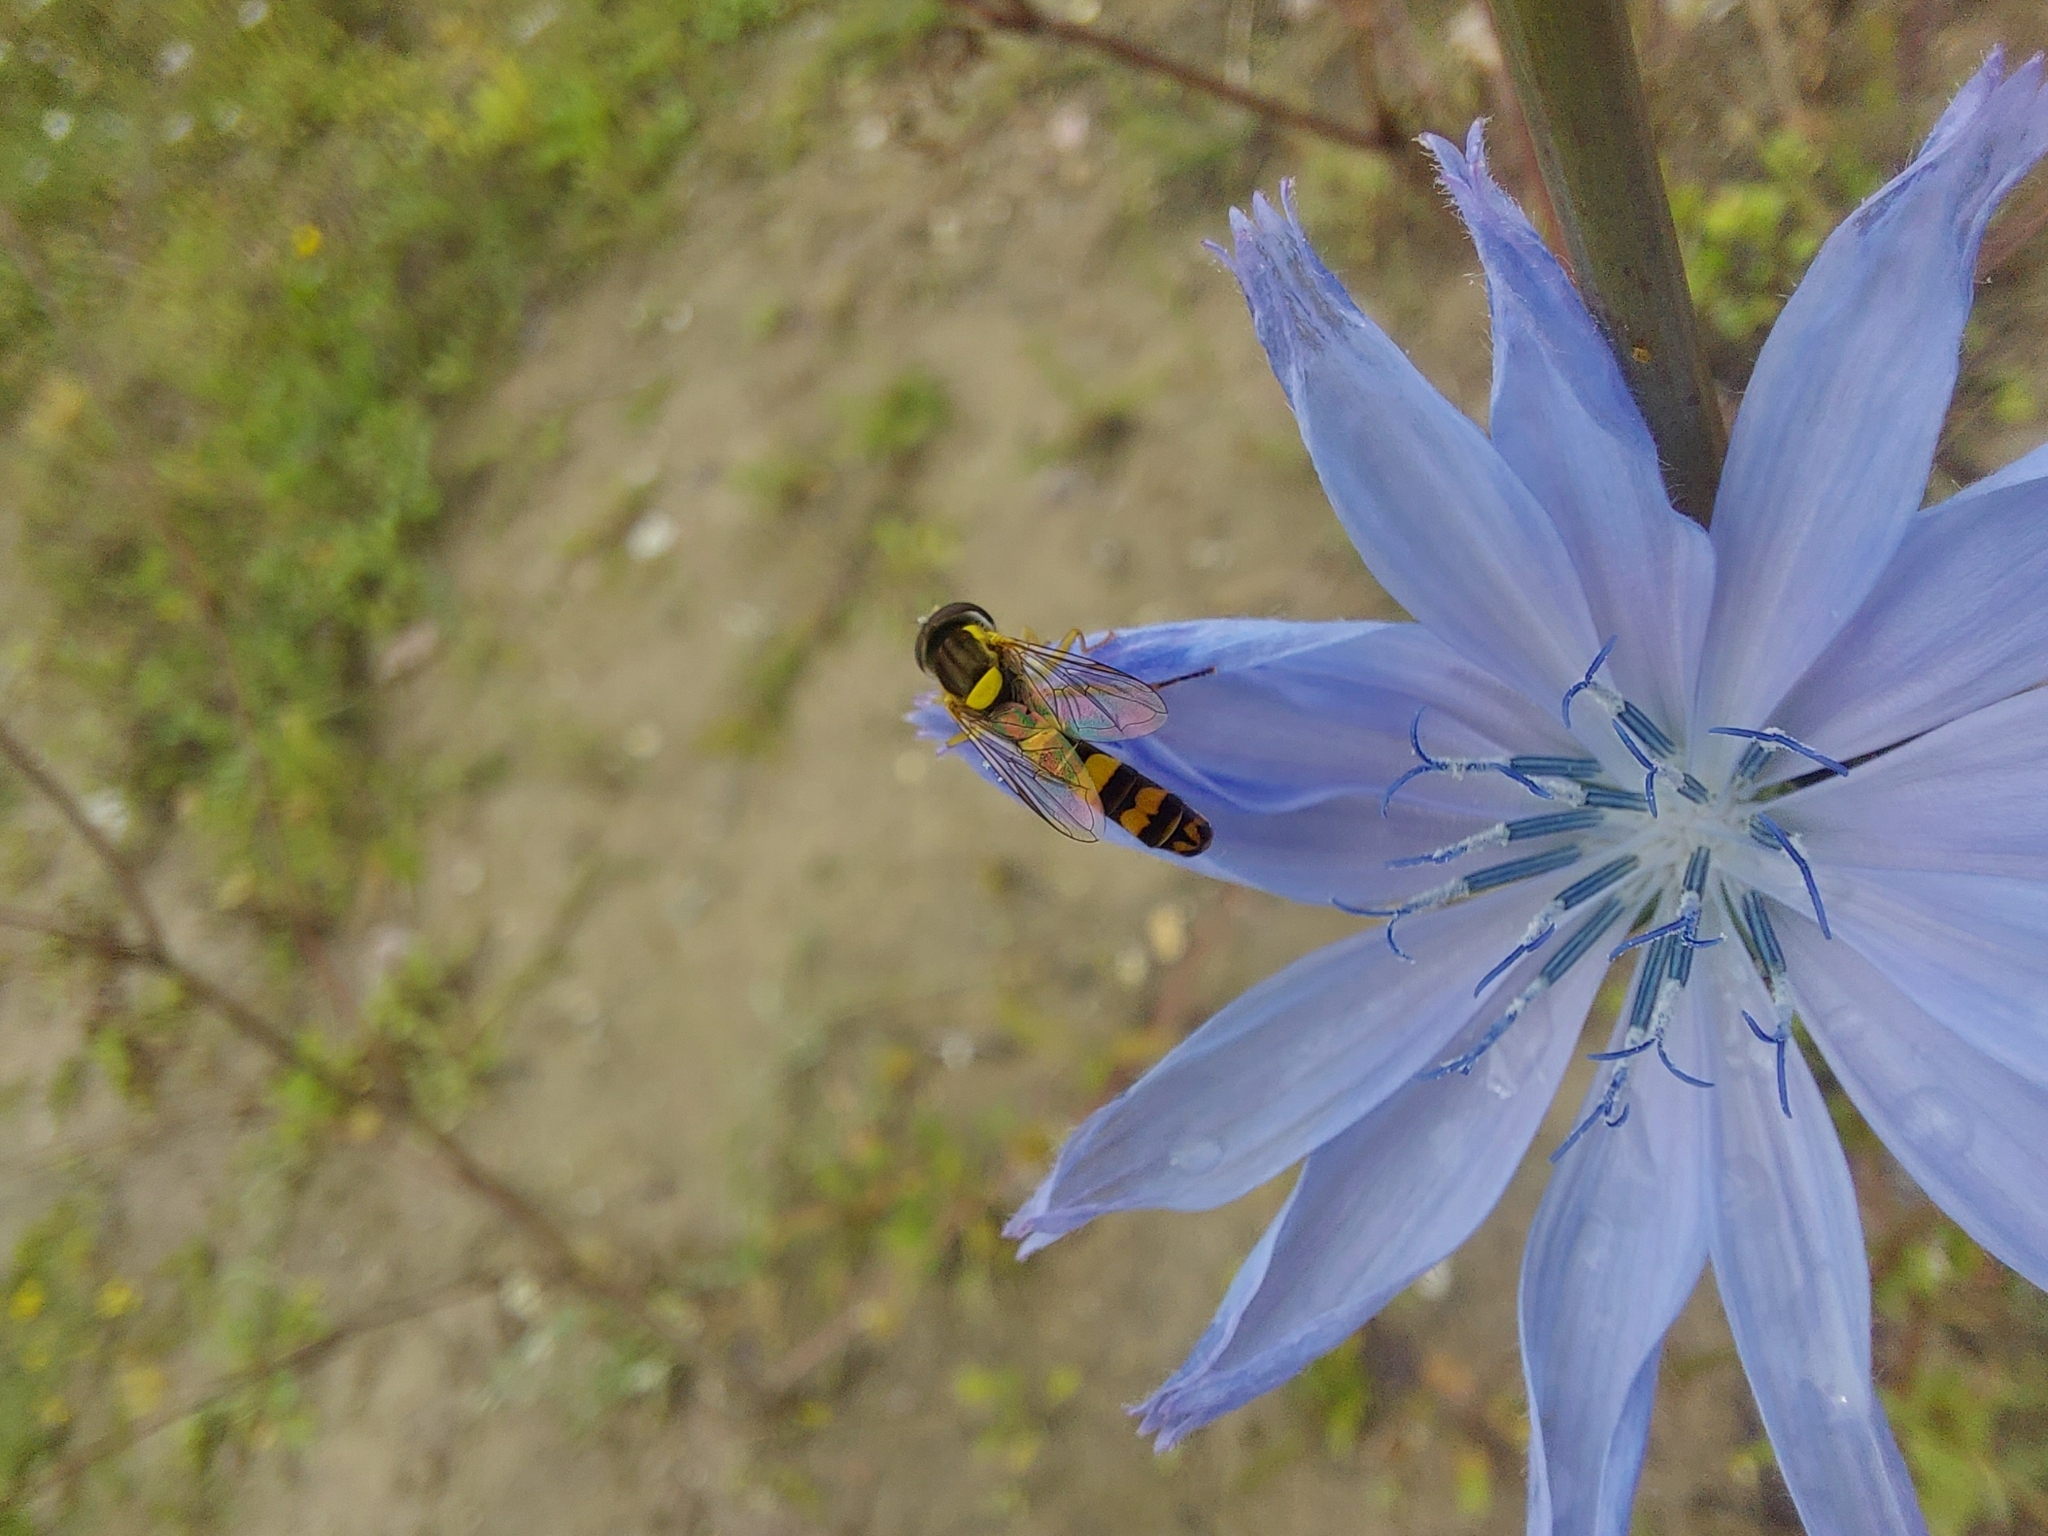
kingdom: Animalia
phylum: Arthropoda
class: Insecta
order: Diptera
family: Syrphidae
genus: Sphaerophoria
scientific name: Sphaerophoria scripta
